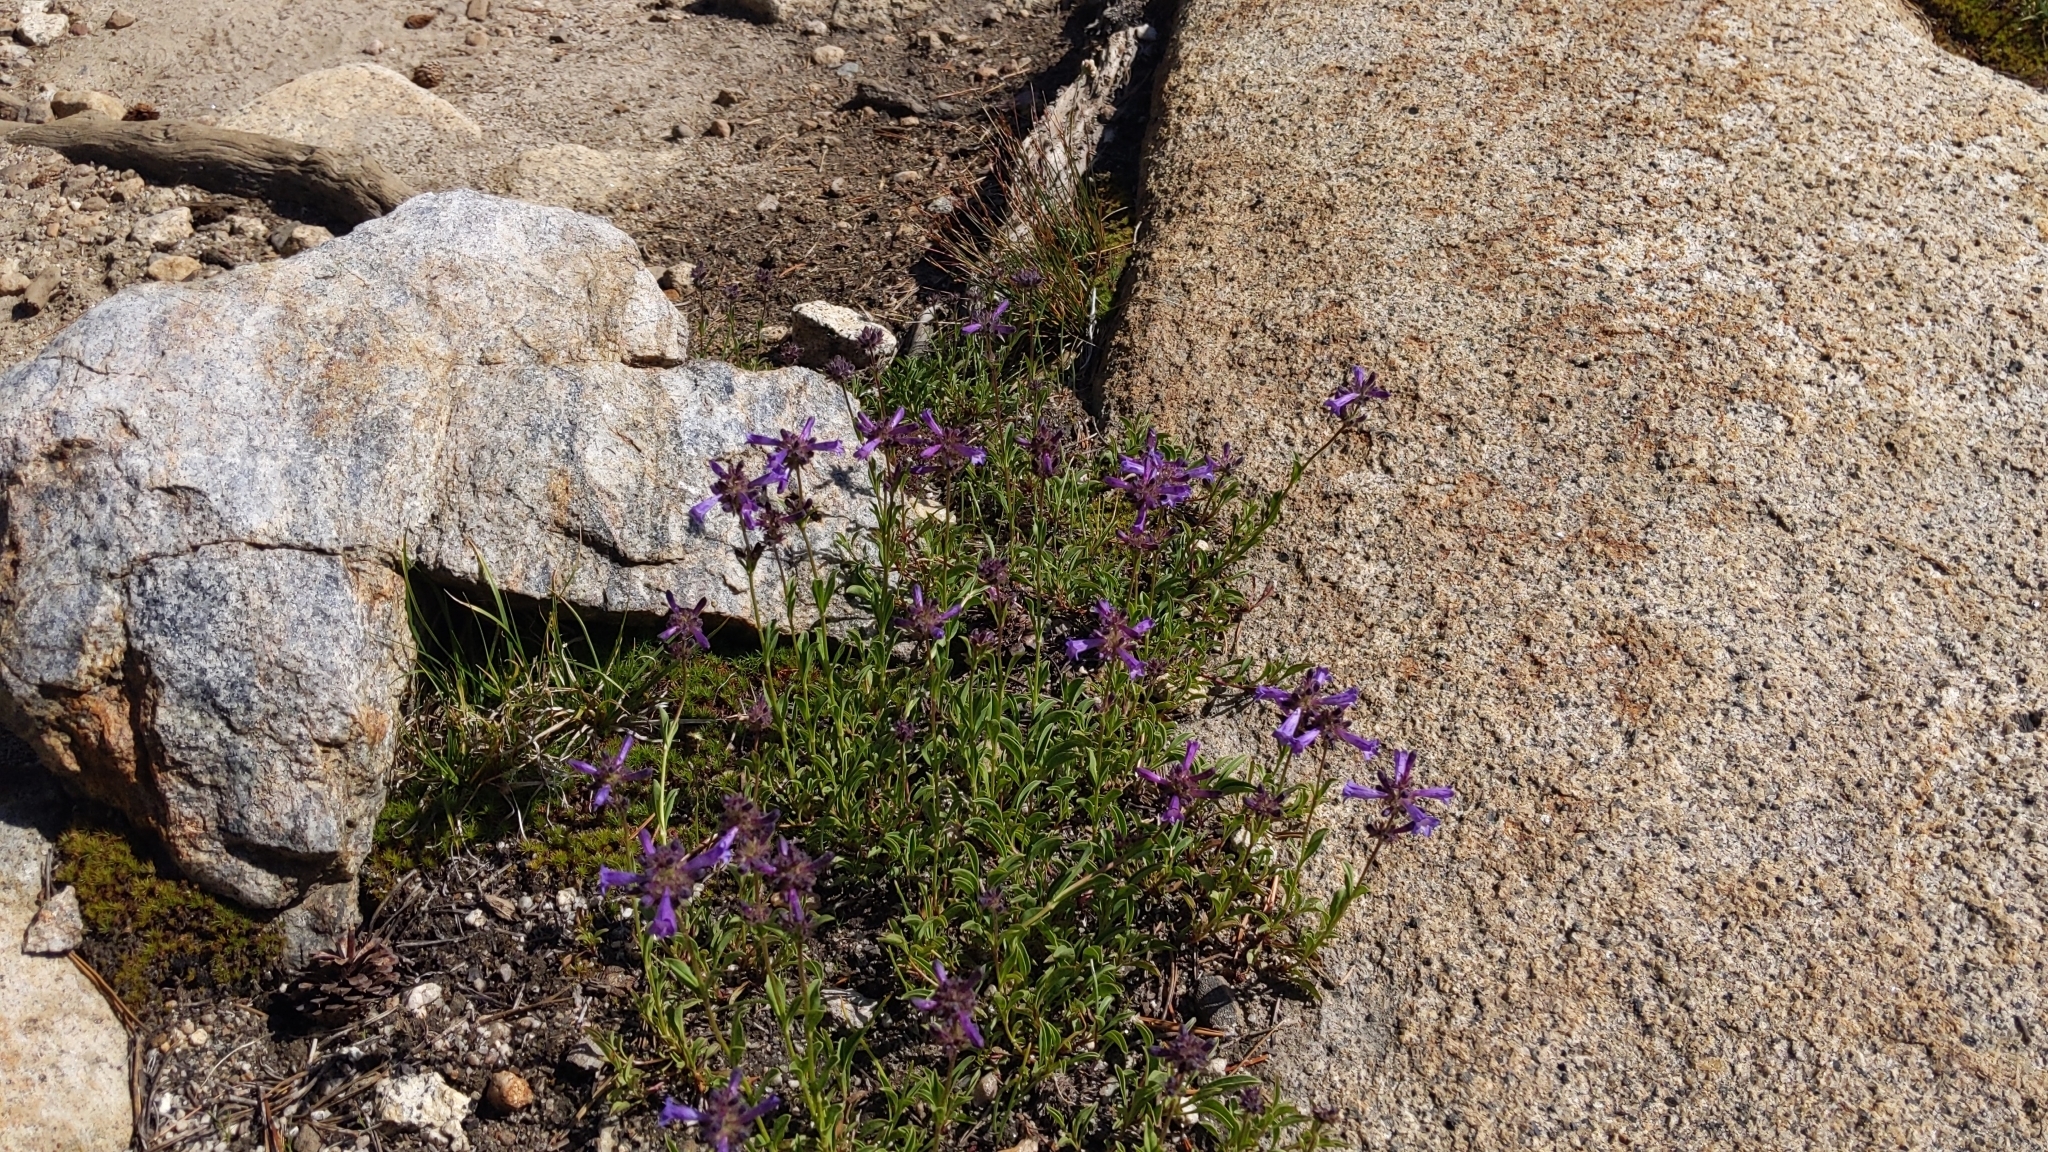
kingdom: Plantae
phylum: Tracheophyta
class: Magnoliopsida
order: Lamiales
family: Plantaginaceae
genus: Penstemon
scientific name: Penstemon heterodoxus
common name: Sierran penstemon
